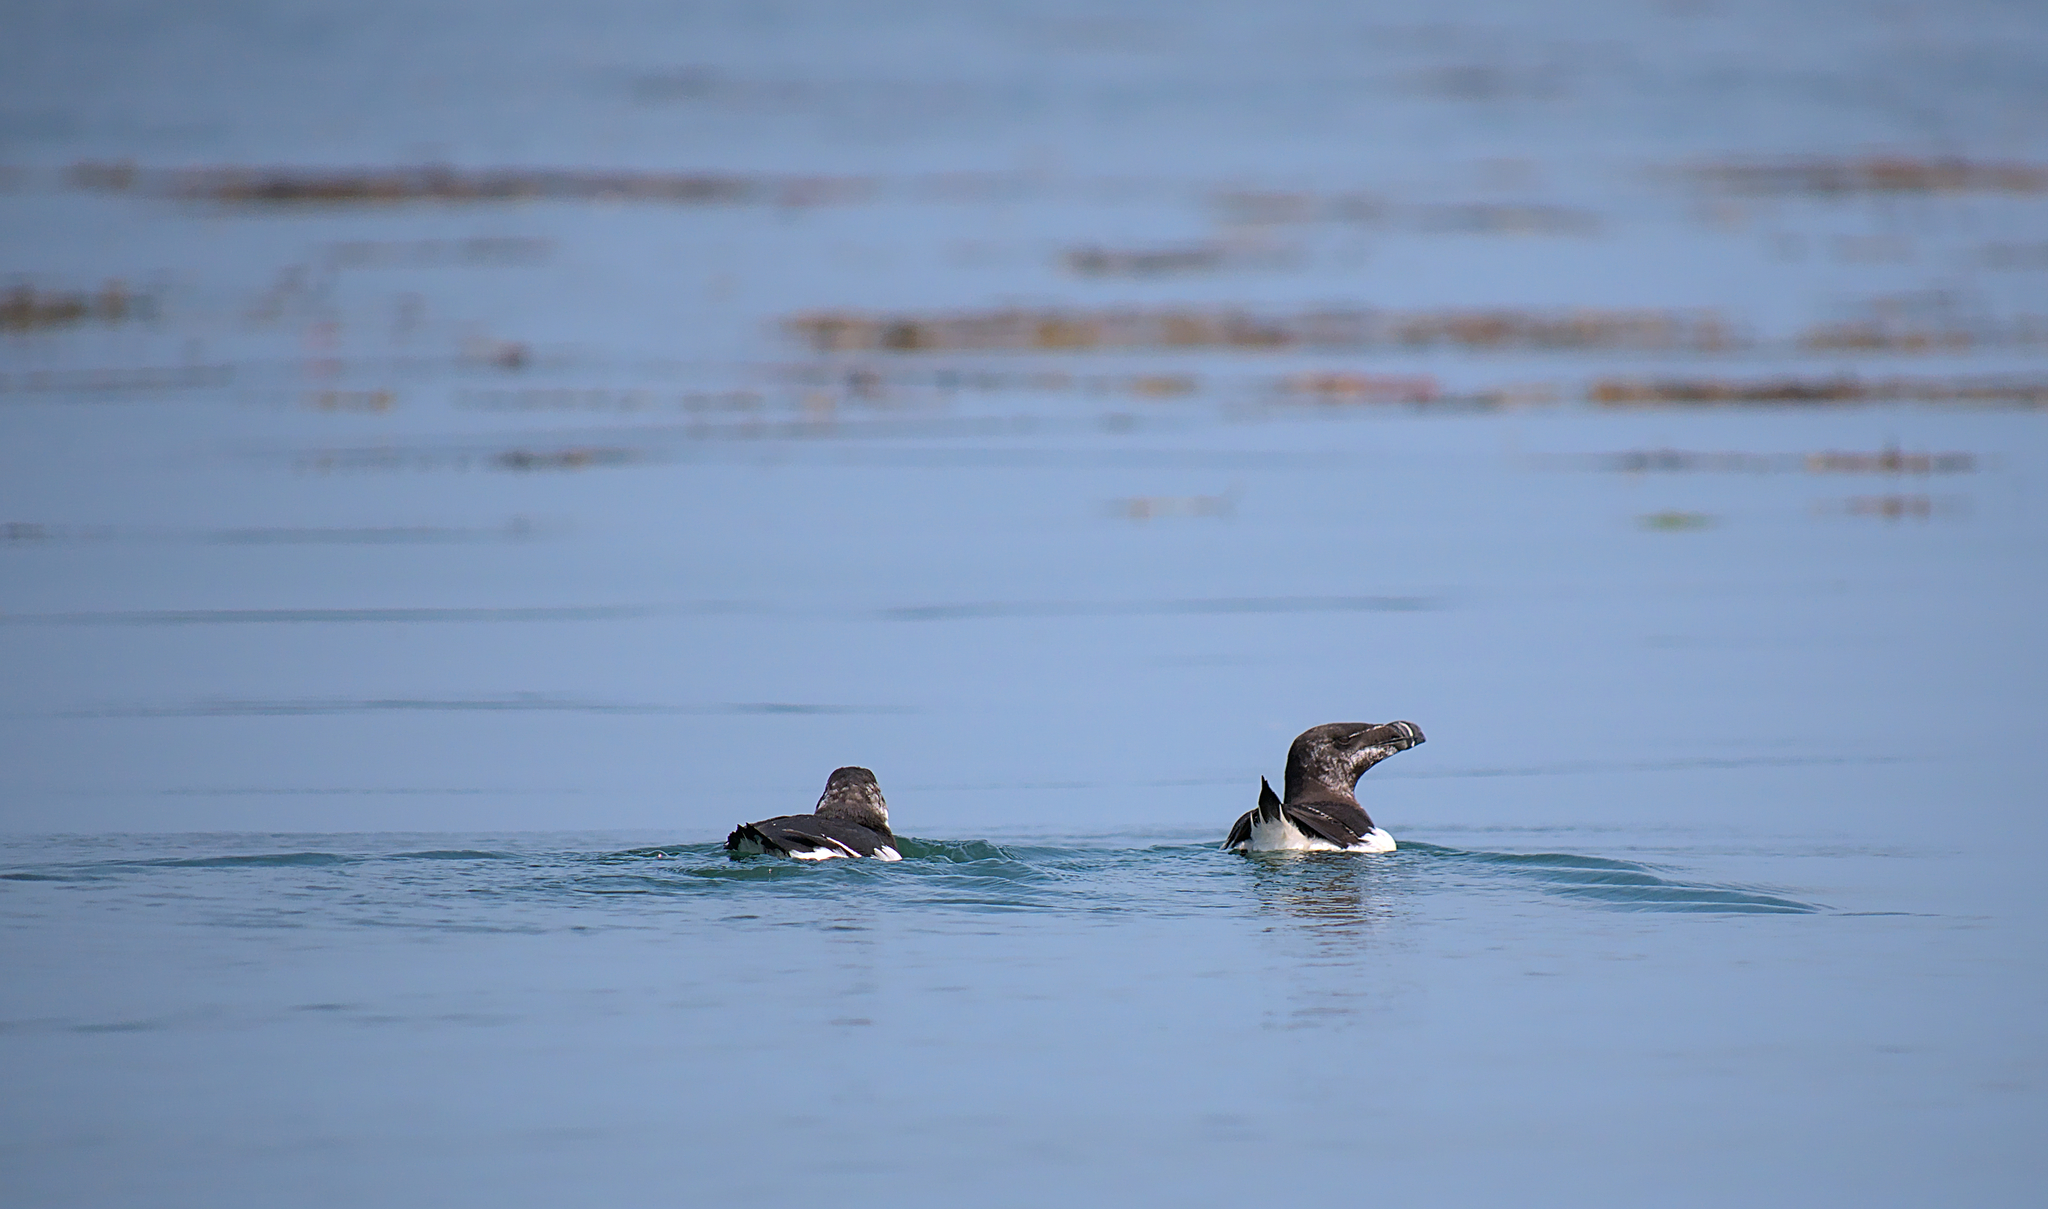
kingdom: Animalia
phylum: Chordata
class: Aves
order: Charadriiformes
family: Alcidae
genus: Alca
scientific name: Alca torda
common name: Razorbill
